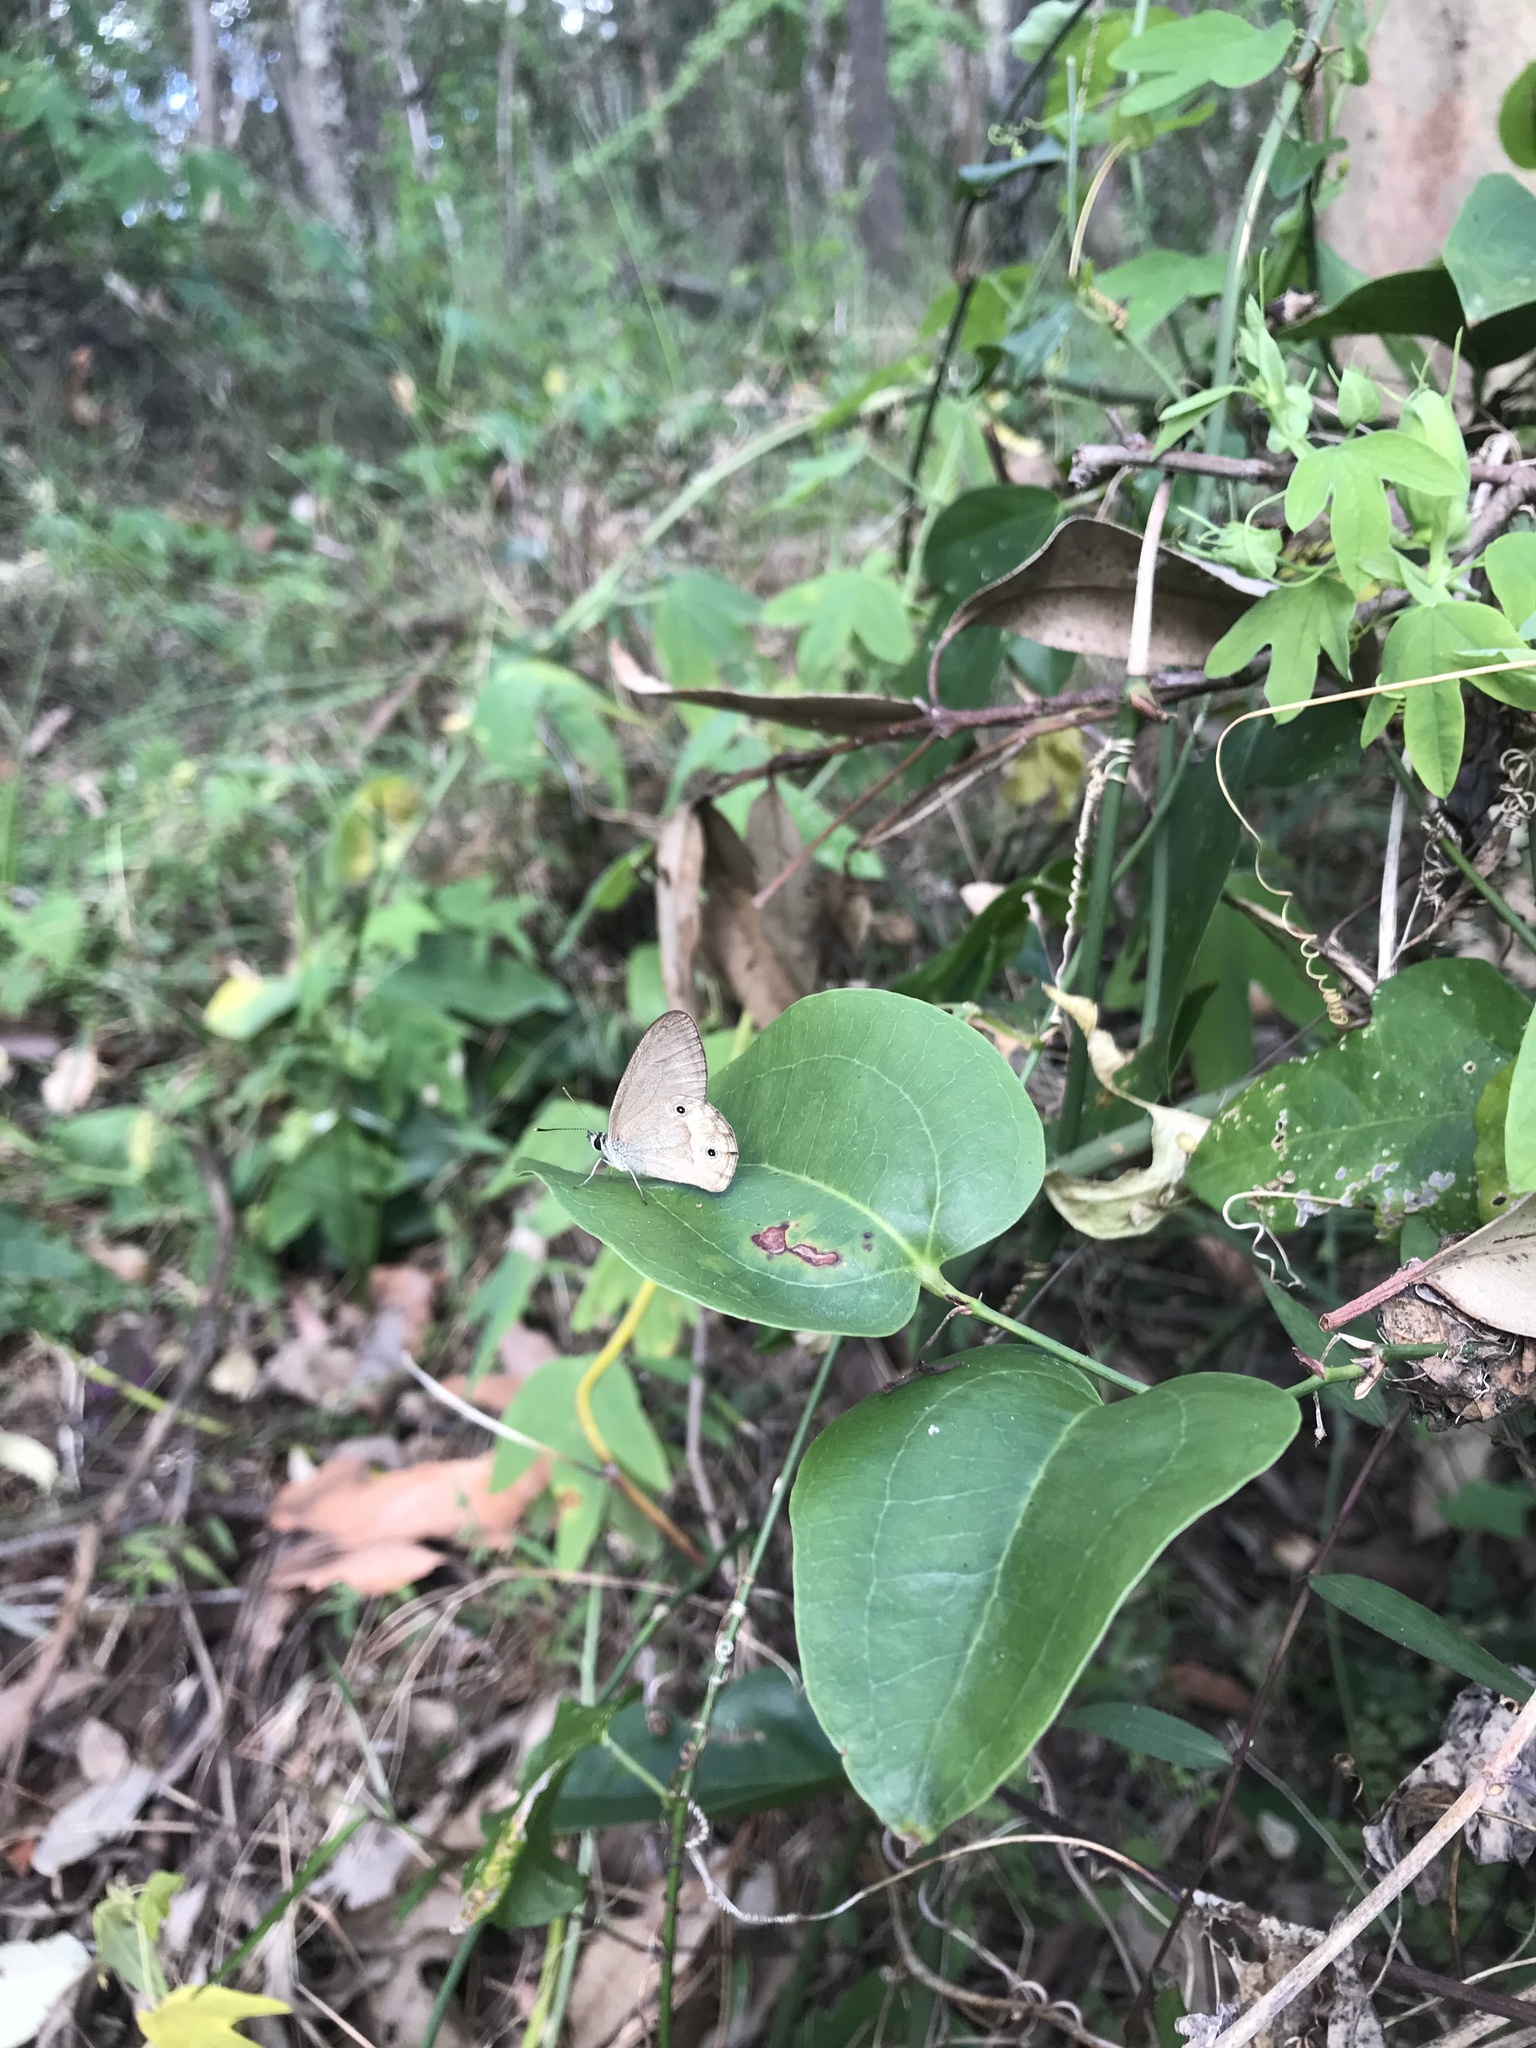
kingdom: Animalia
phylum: Arthropoda
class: Insecta
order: Lepidoptera
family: Nymphalidae
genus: Hypocysta
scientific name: Hypocysta pseudirius
